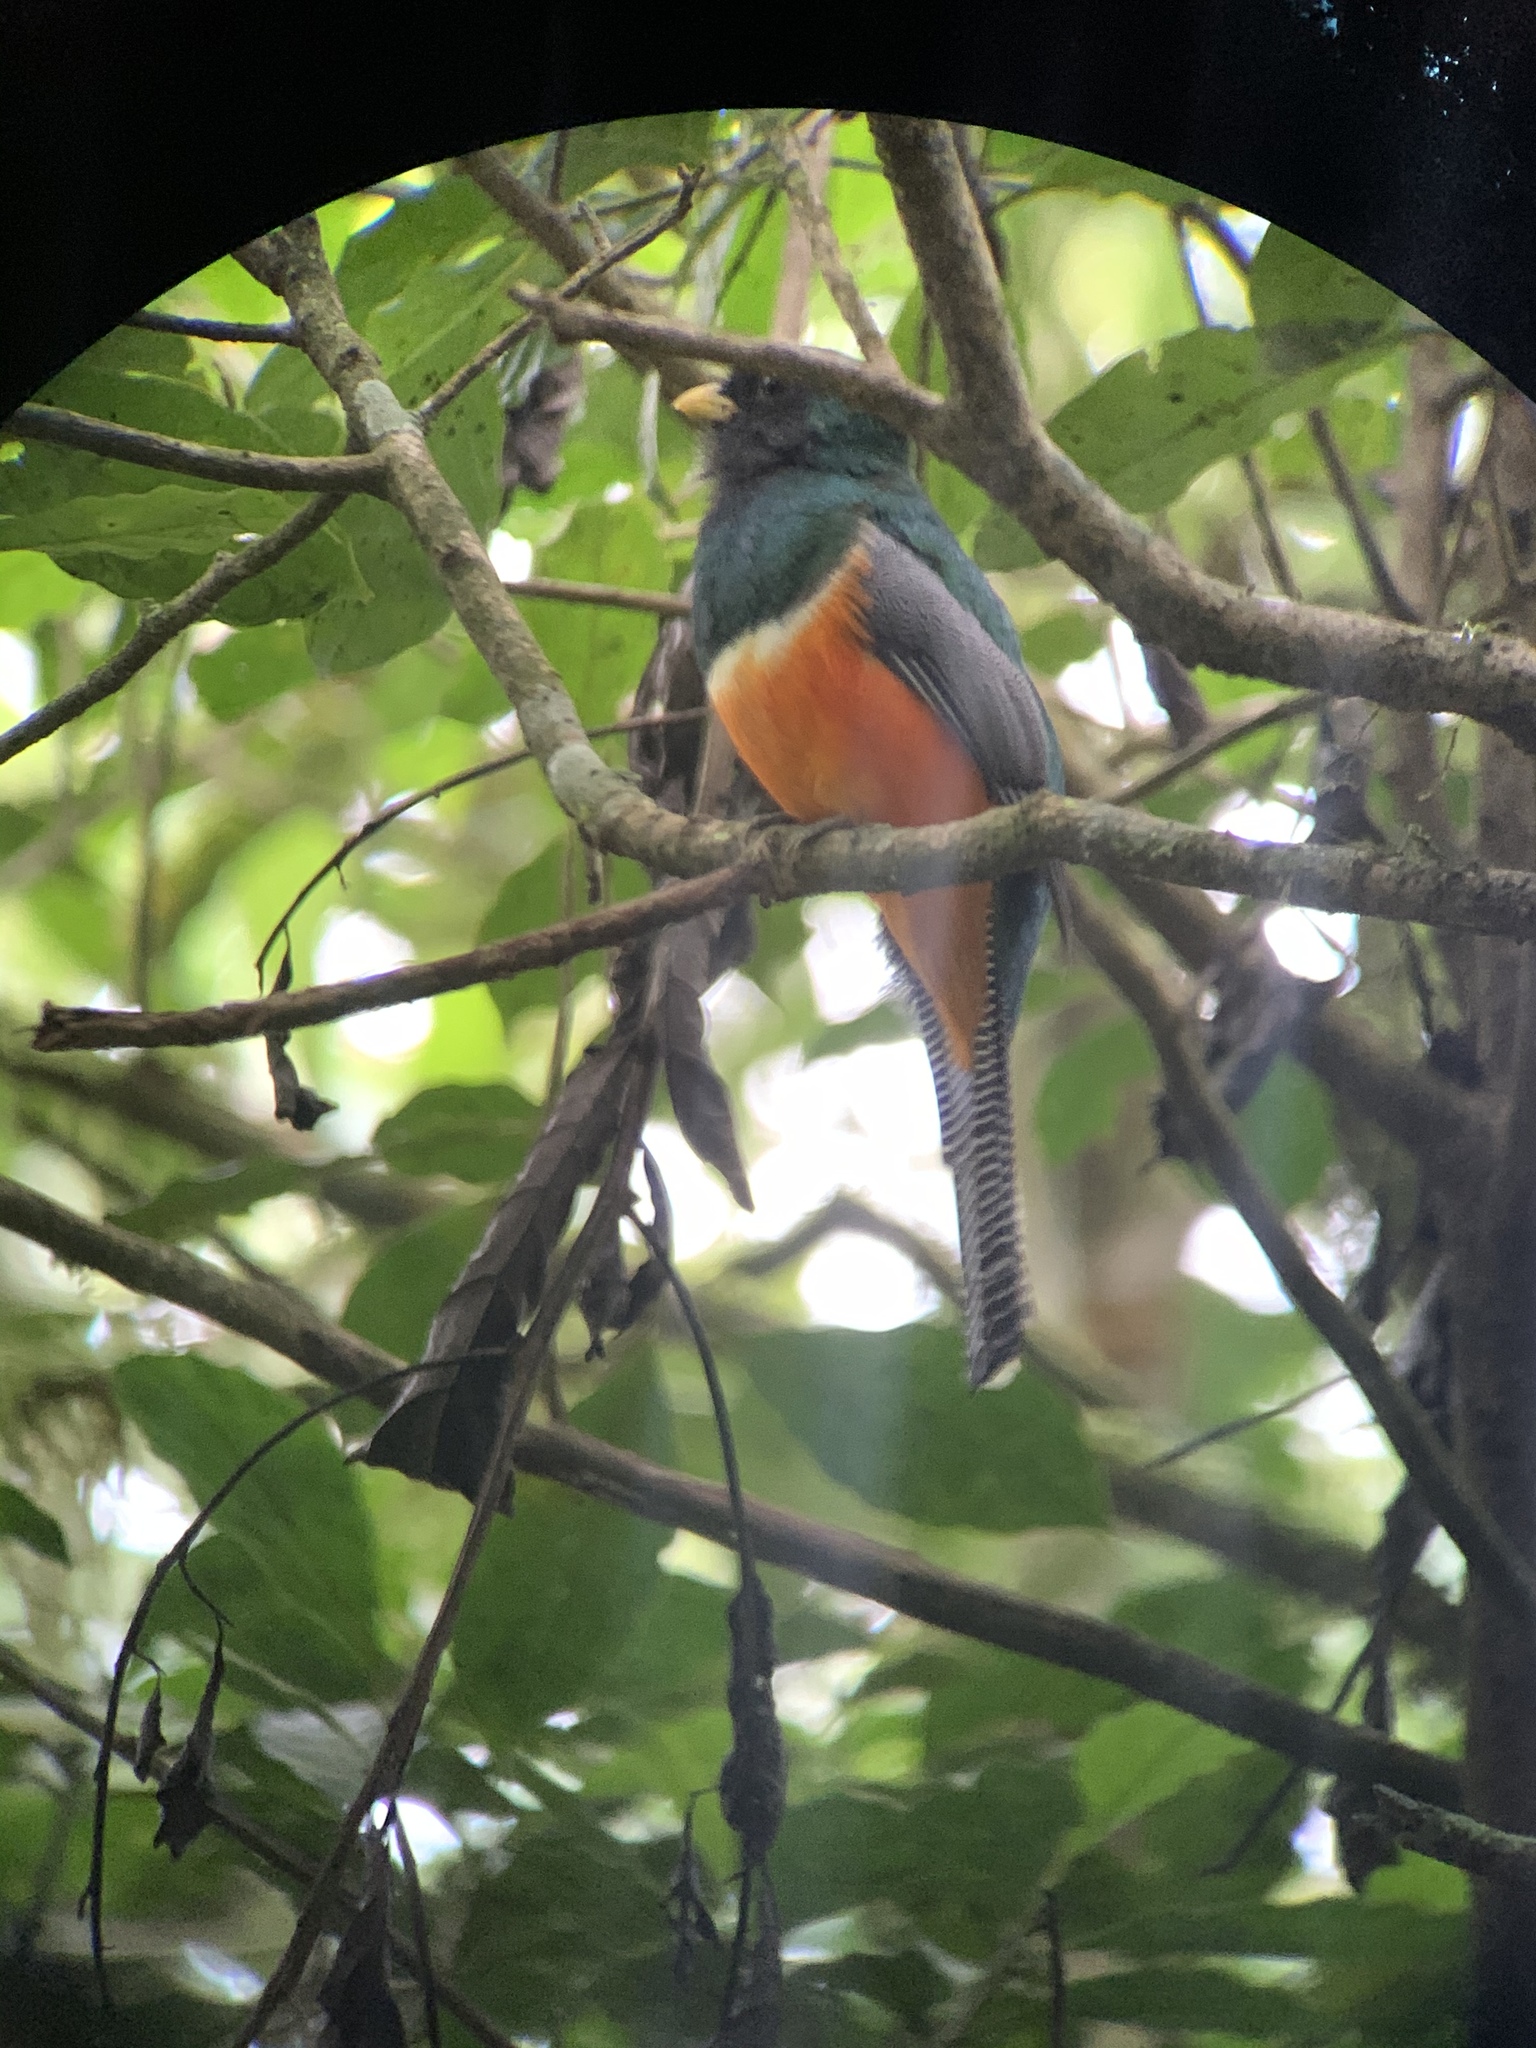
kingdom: Animalia
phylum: Chordata
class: Aves
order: Trogoniformes
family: Trogonidae
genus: Trogon
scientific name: Trogon collaris
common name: Collared trogon
